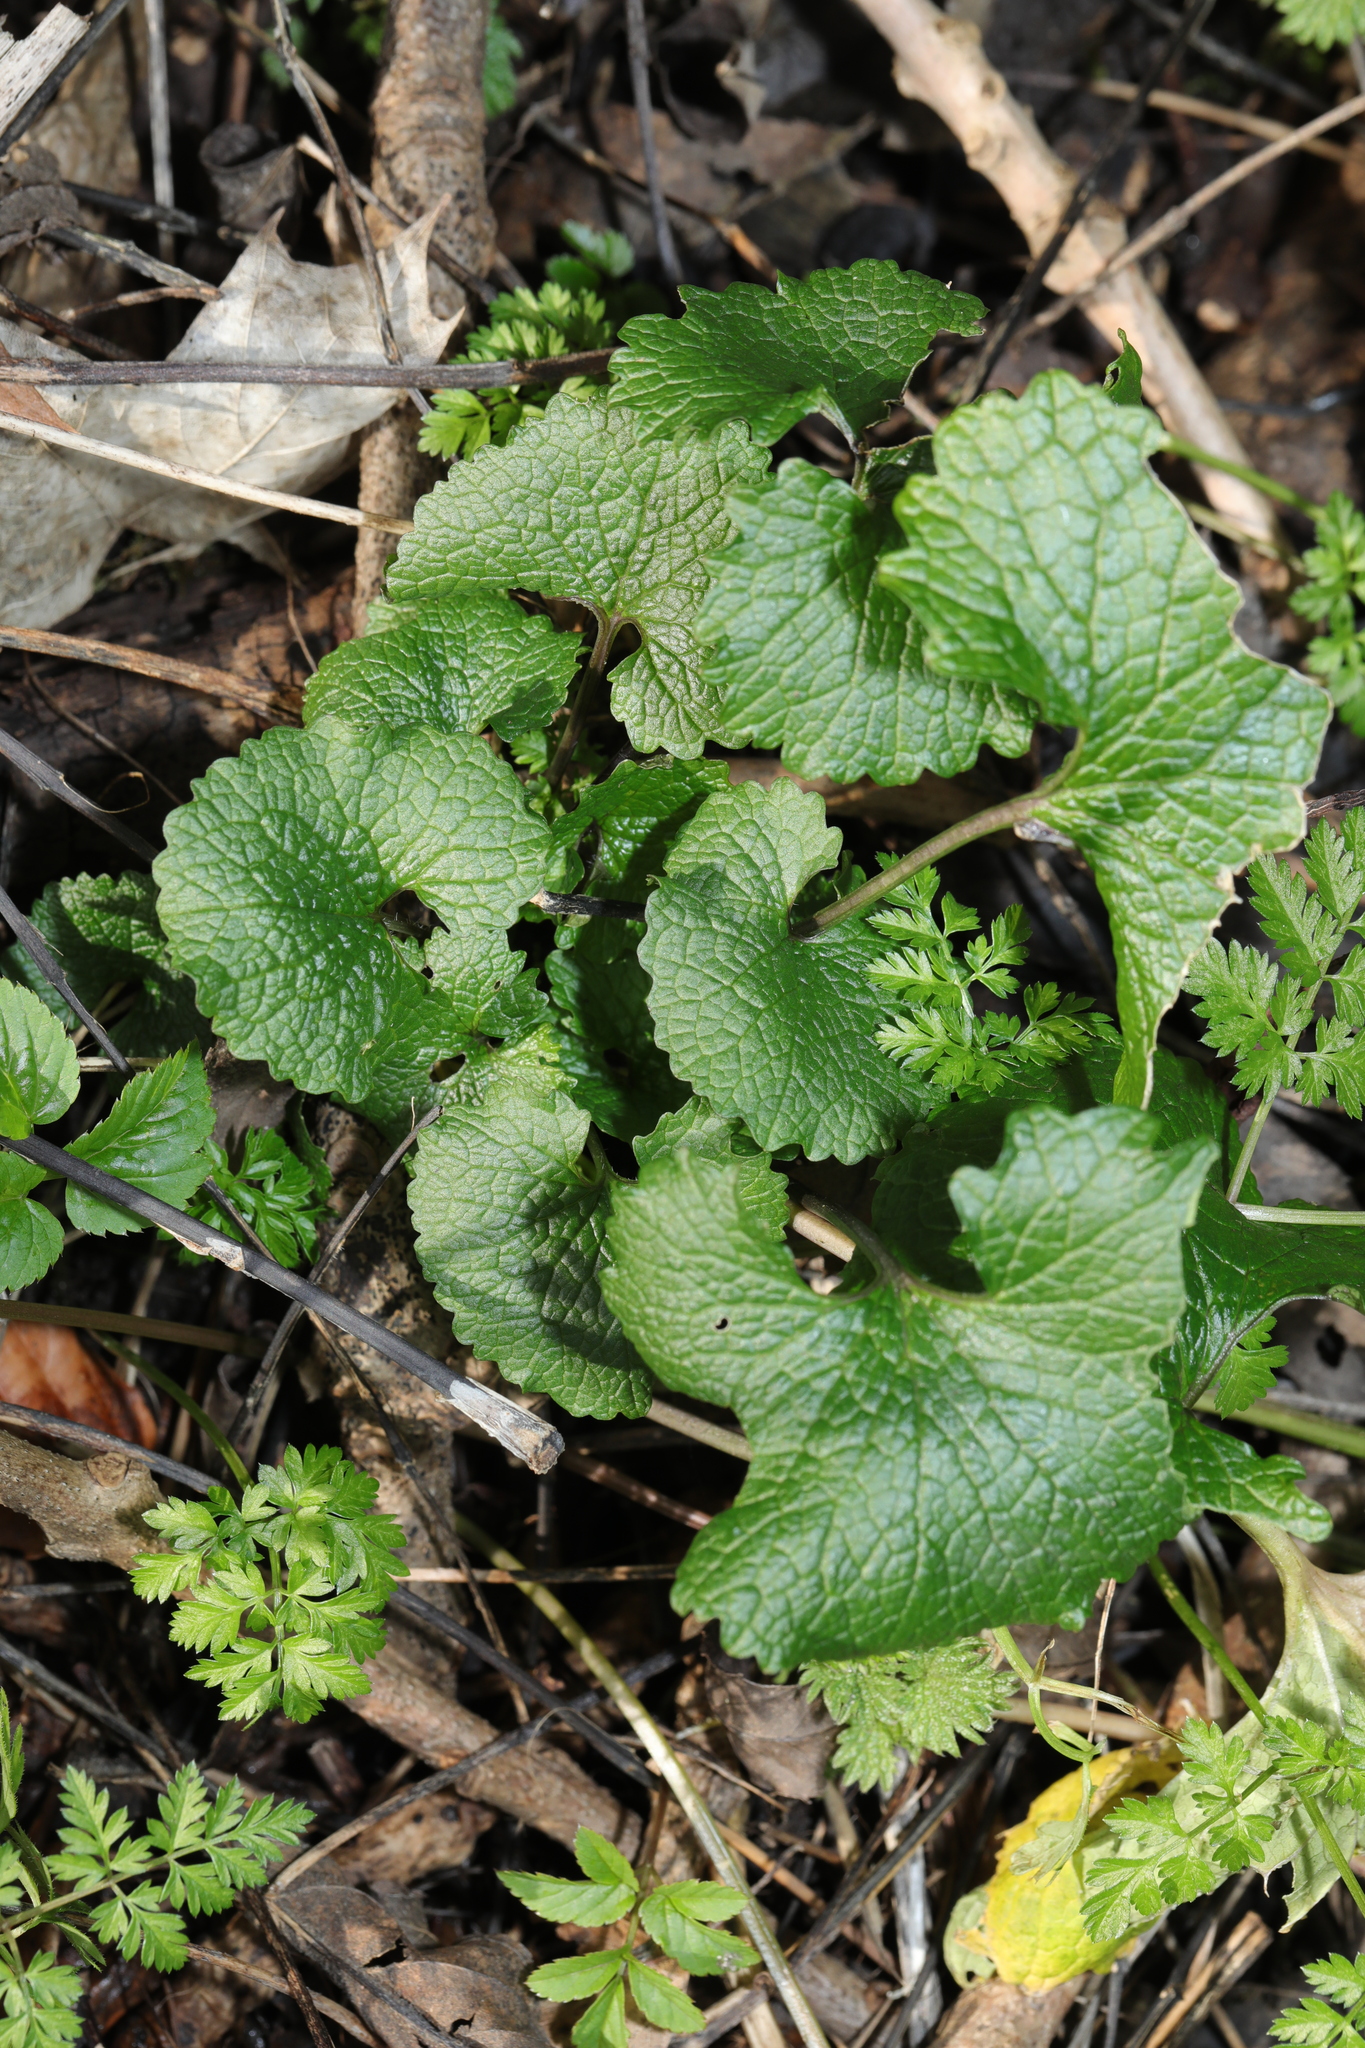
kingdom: Plantae
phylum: Tracheophyta
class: Magnoliopsida
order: Brassicales
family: Brassicaceae
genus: Alliaria
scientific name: Alliaria petiolata
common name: Garlic mustard
